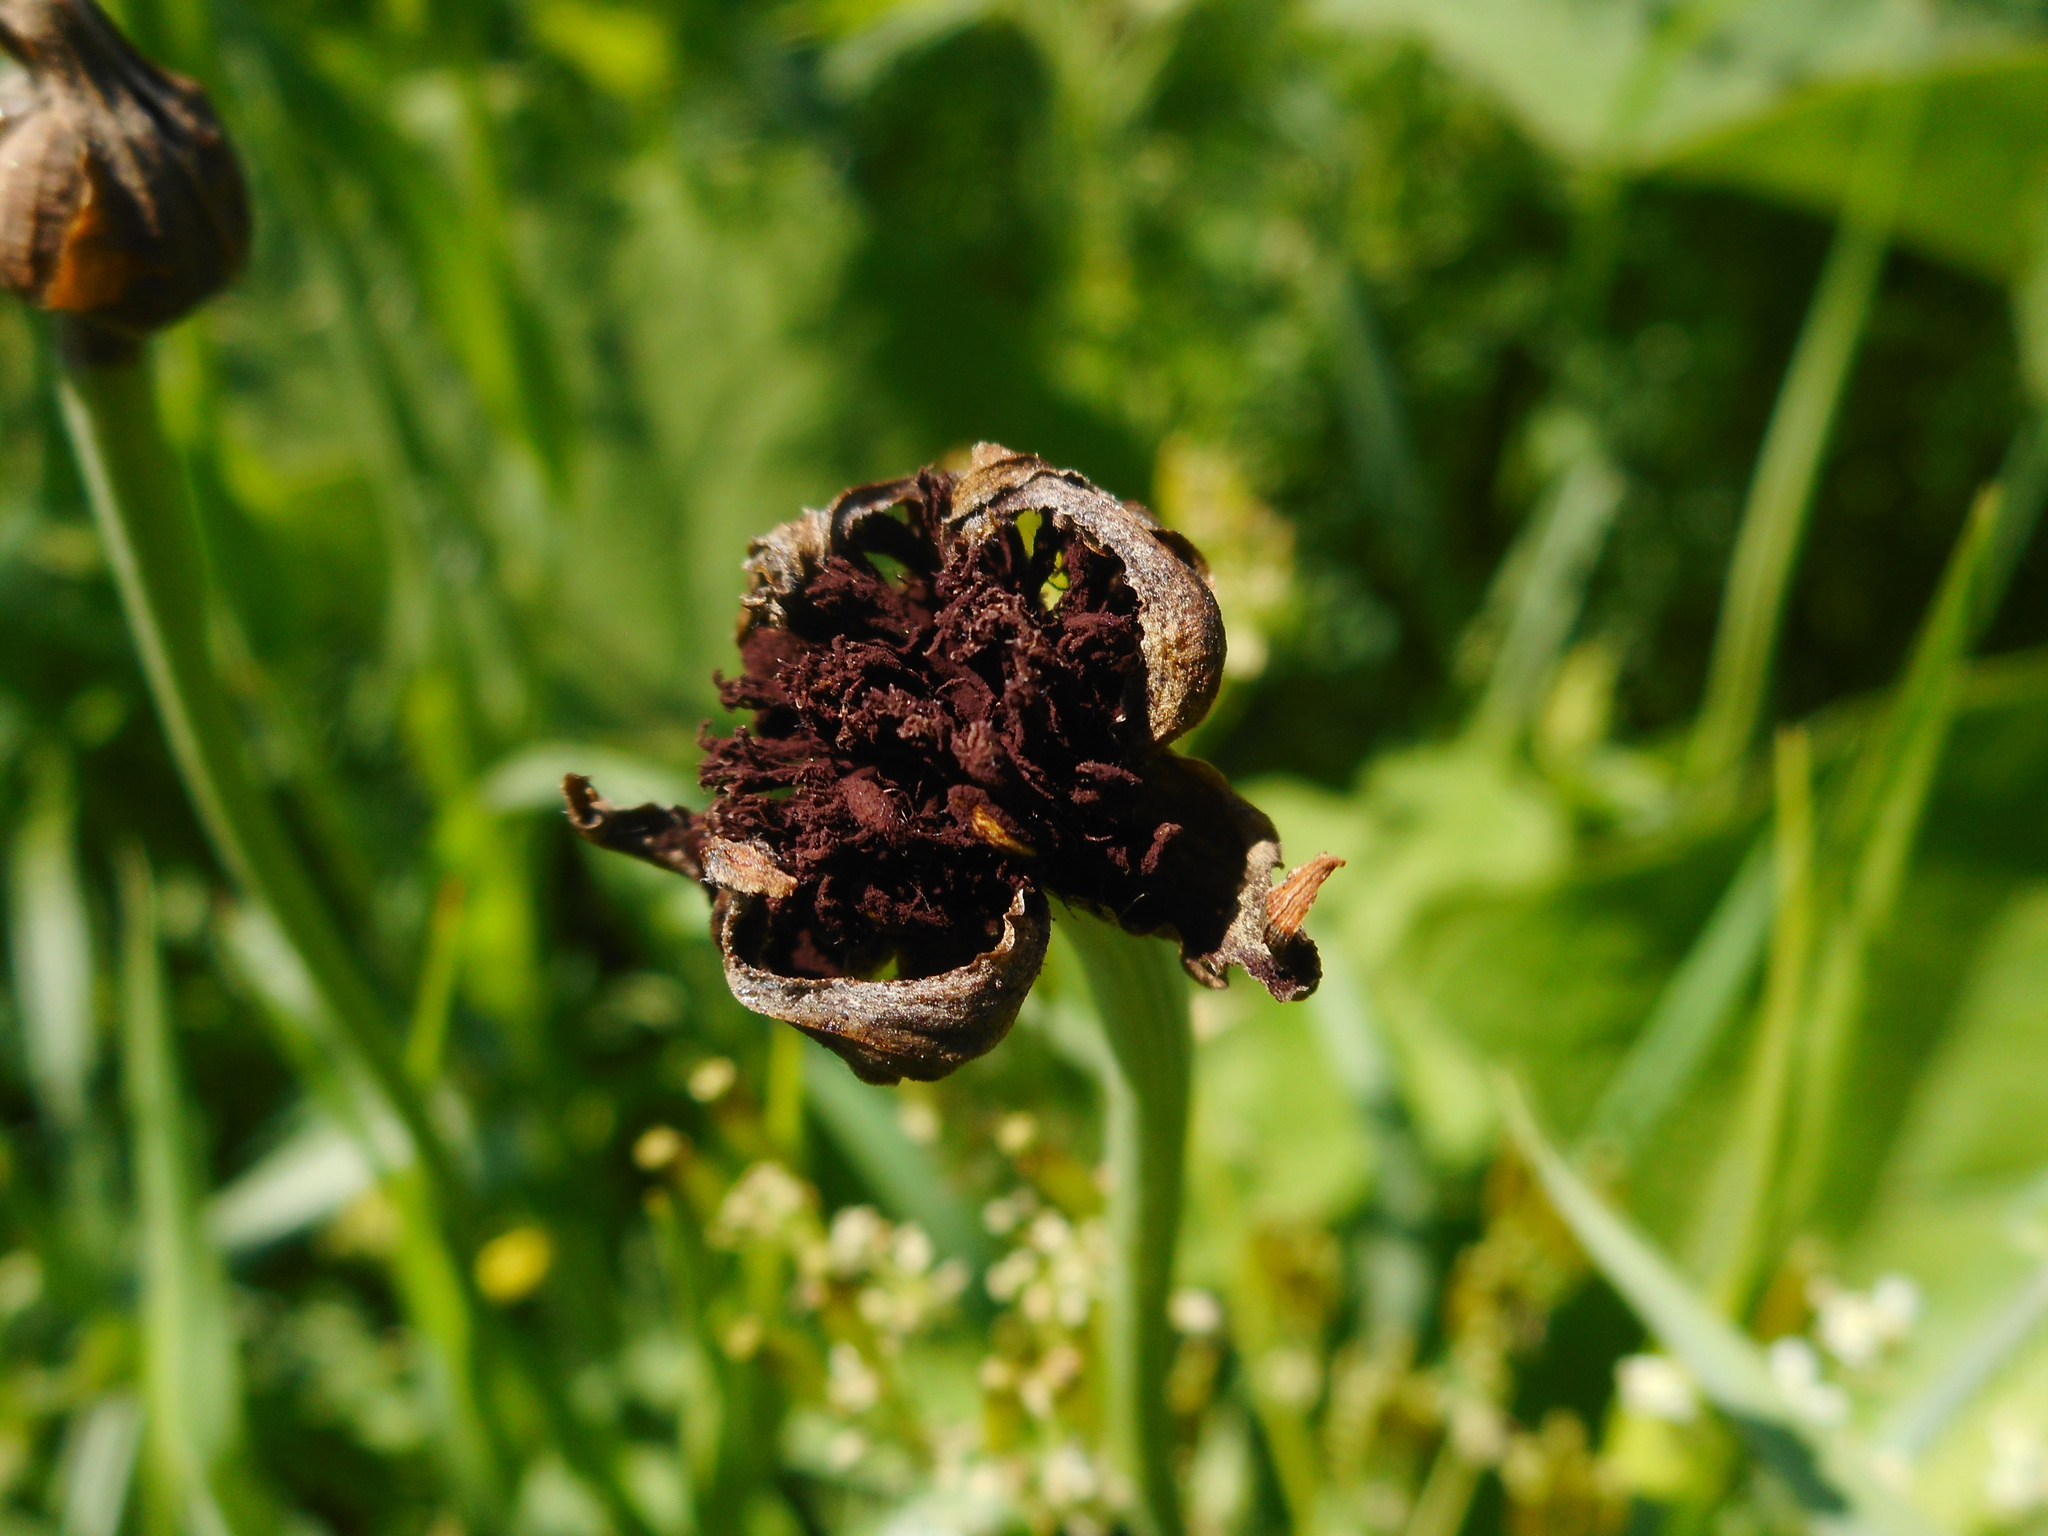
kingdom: Fungi
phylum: Basidiomycota
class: Microbotryomycetes
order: Microbotryales
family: Microbotryaceae
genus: Microbotryum
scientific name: Microbotryum tragopogonis-pratensis
